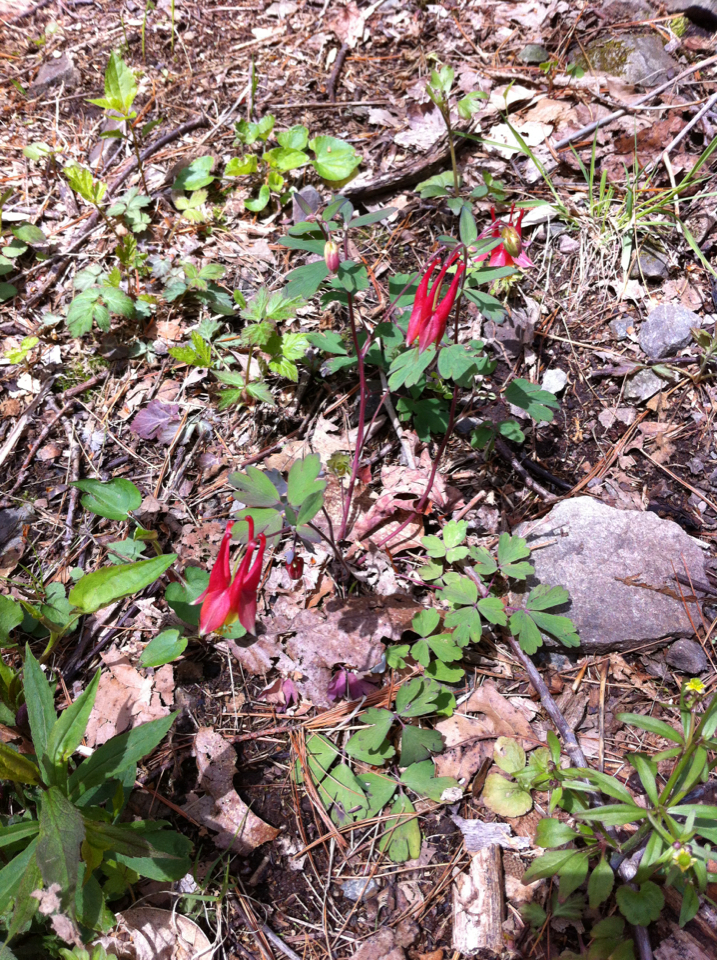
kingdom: Plantae
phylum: Tracheophyta
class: Magnoliopsida
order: Ranunculales
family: Ranunculaceae
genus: Aquilegia
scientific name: Aquilegia canadensis
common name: American columbine
